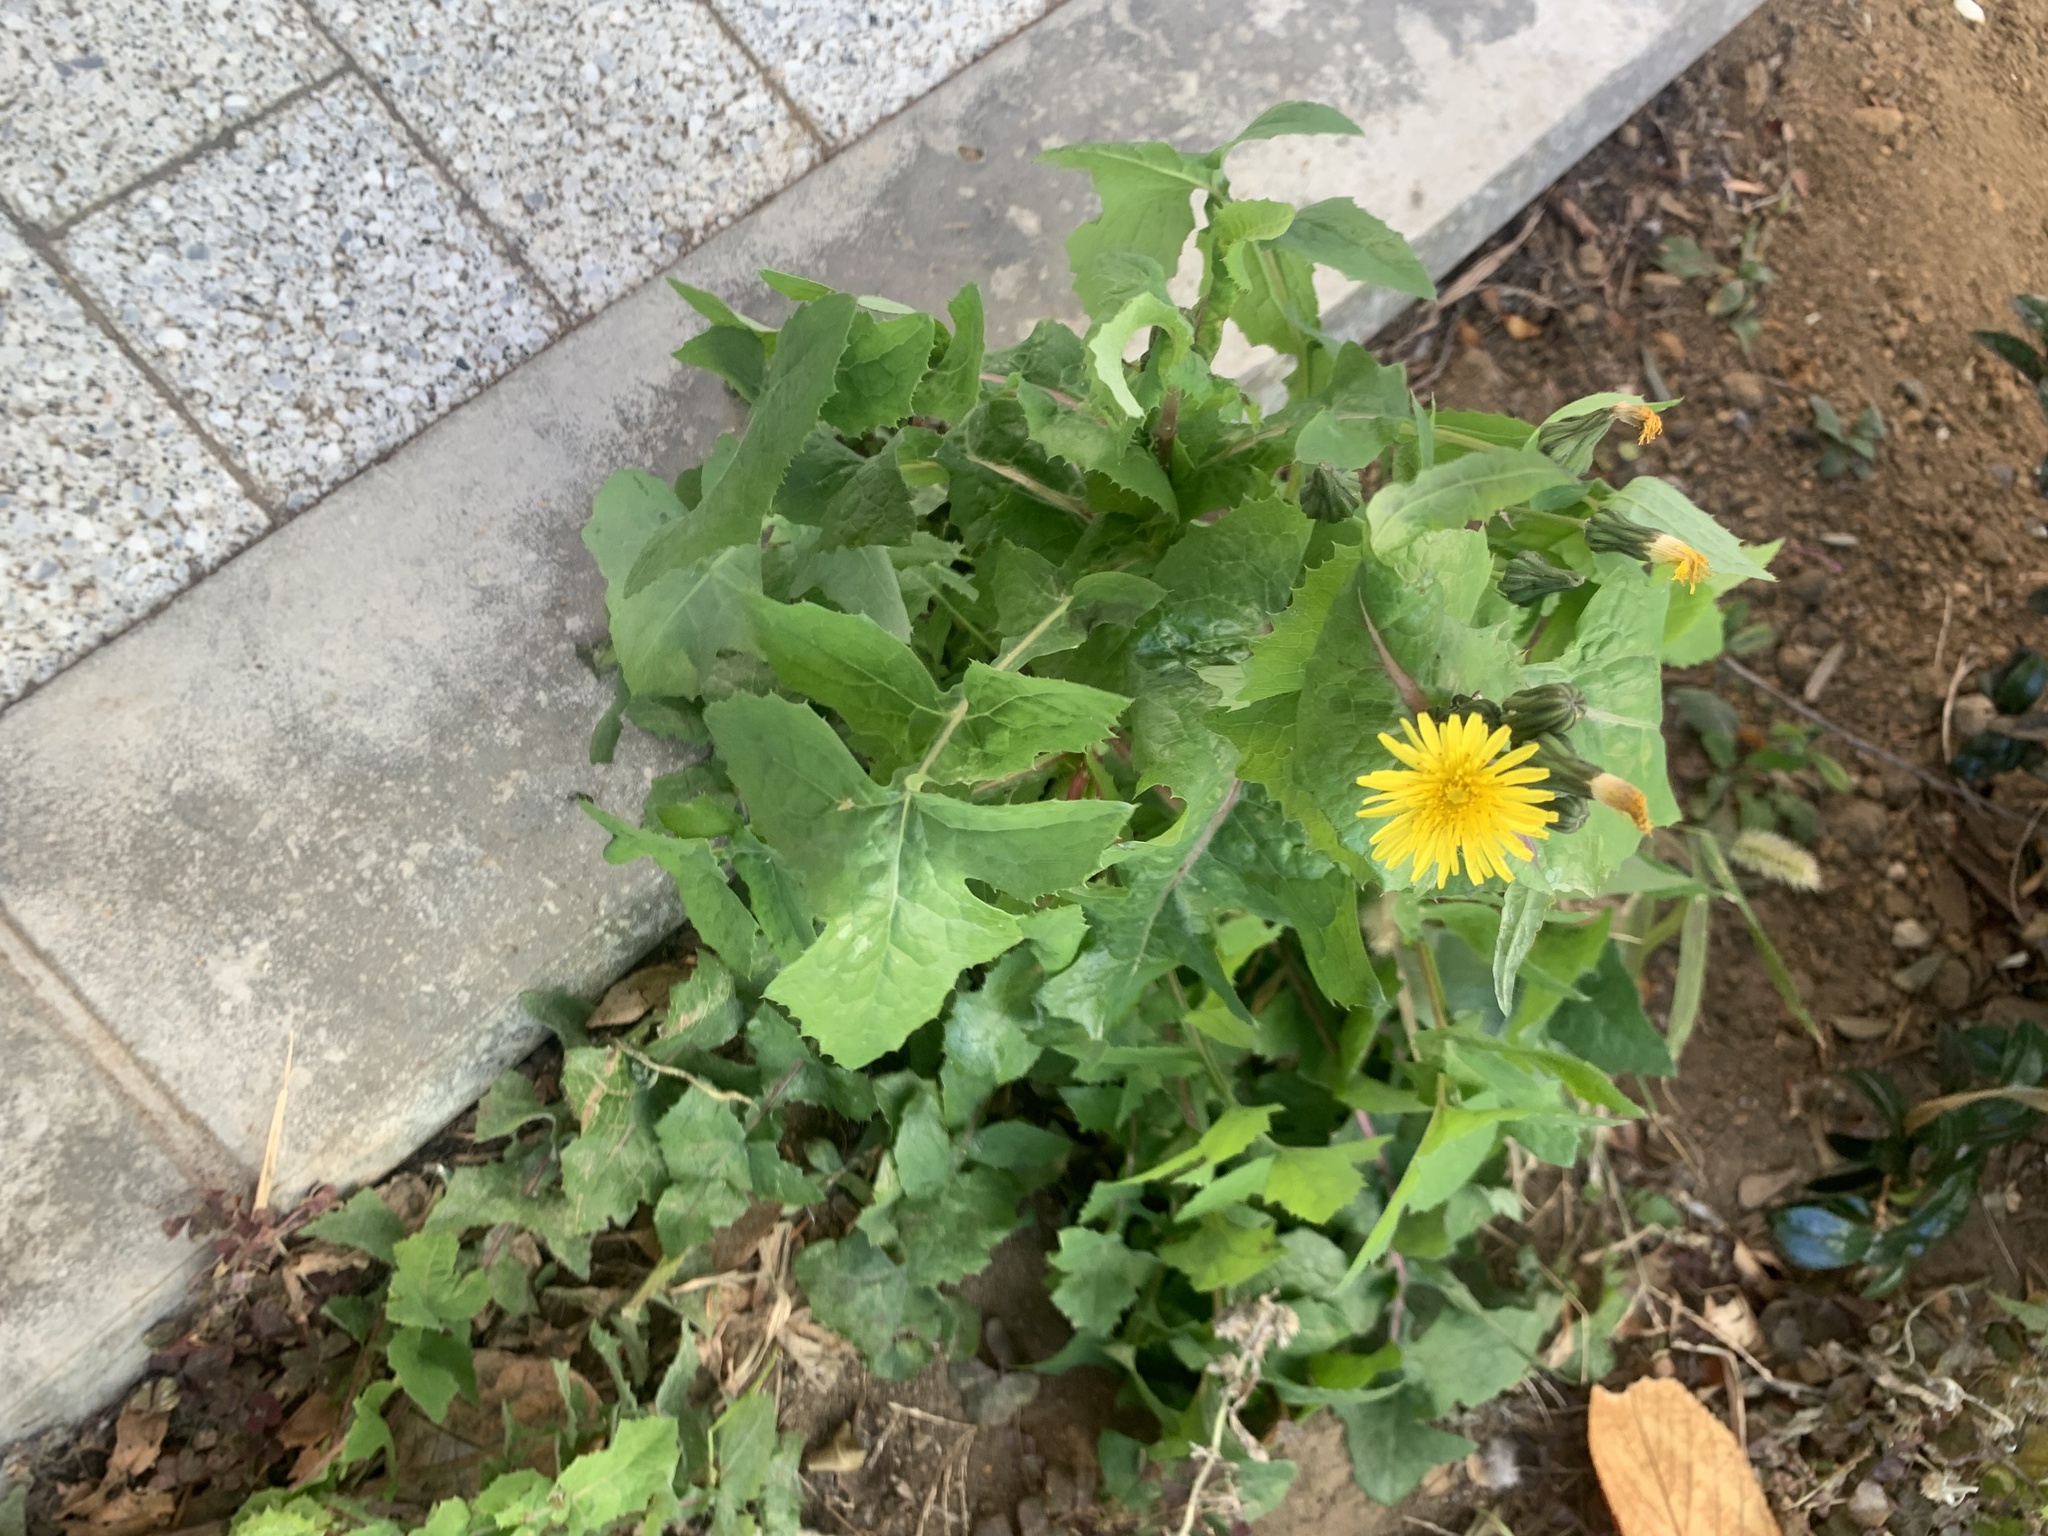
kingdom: Plantae
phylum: Tracheophyta
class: Magnoliopsida
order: Asterales
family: Asteraceae
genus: Sonchus
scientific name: Sonchus oleraceus
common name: Common sowthistle
